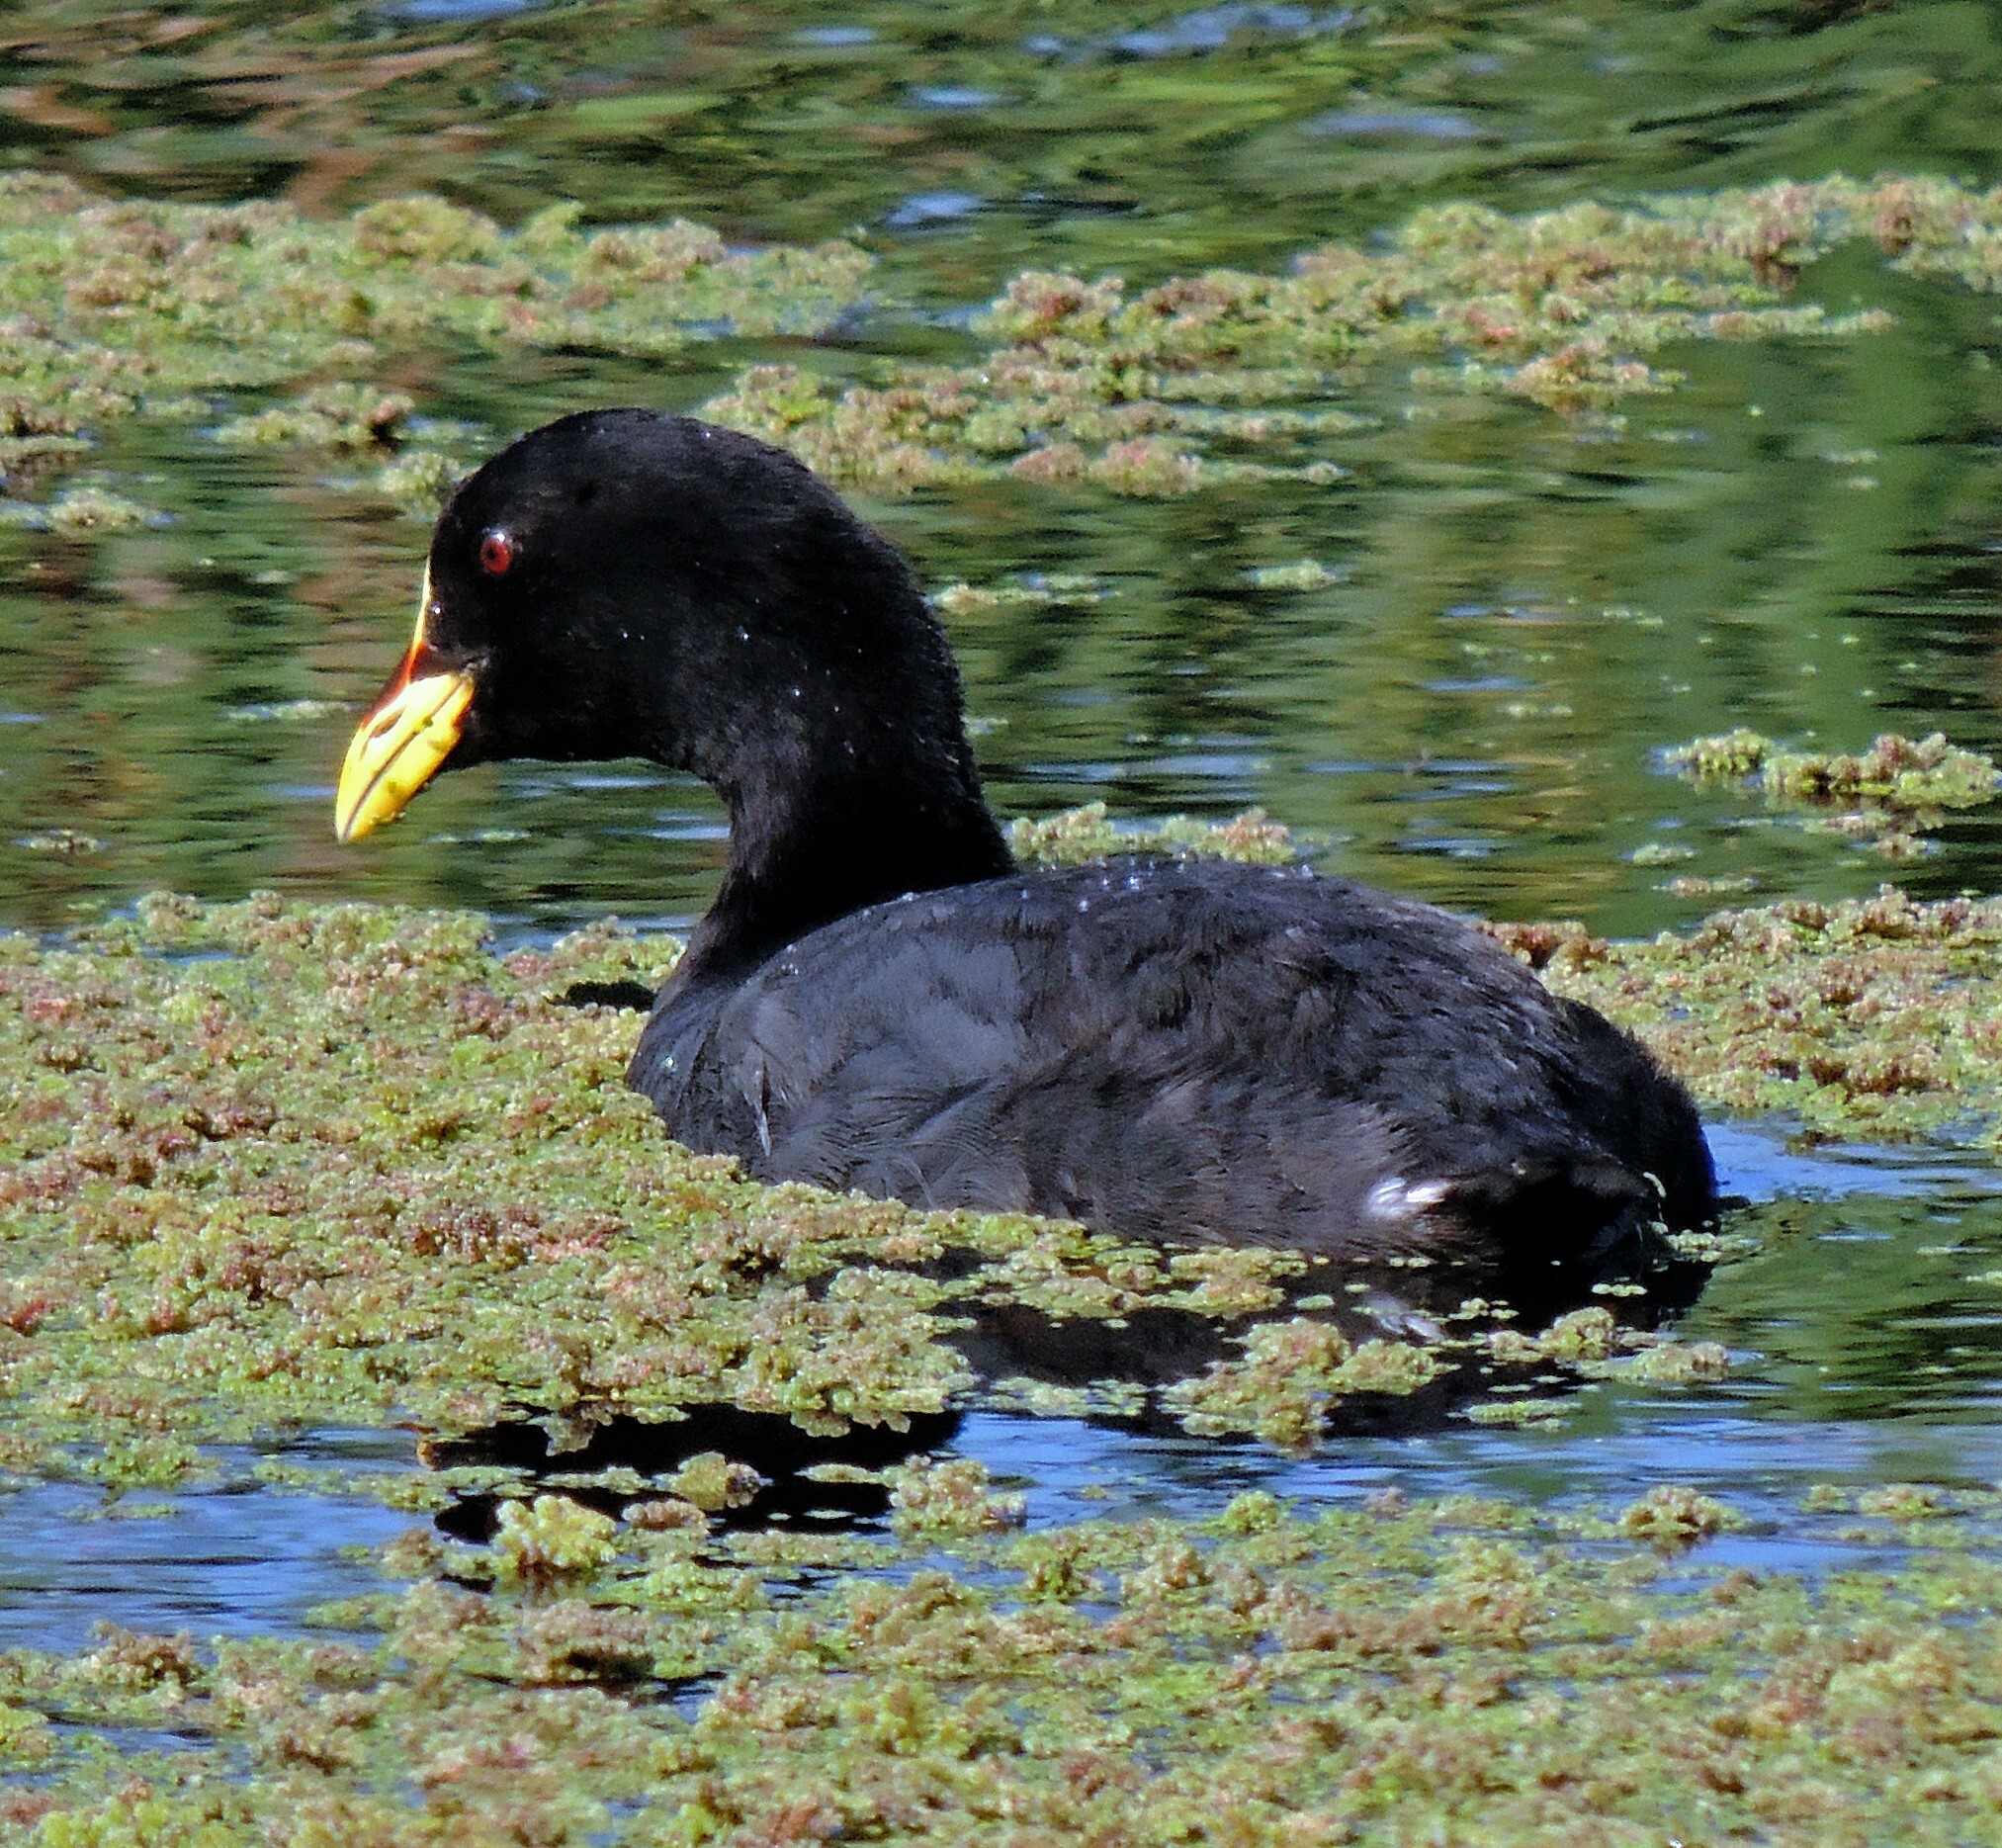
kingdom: Animalia
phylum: Chordata
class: Aves
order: Gruiformes
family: Rallidae
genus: Fulica
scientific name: Fulica armillata
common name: Red-gartered coot
